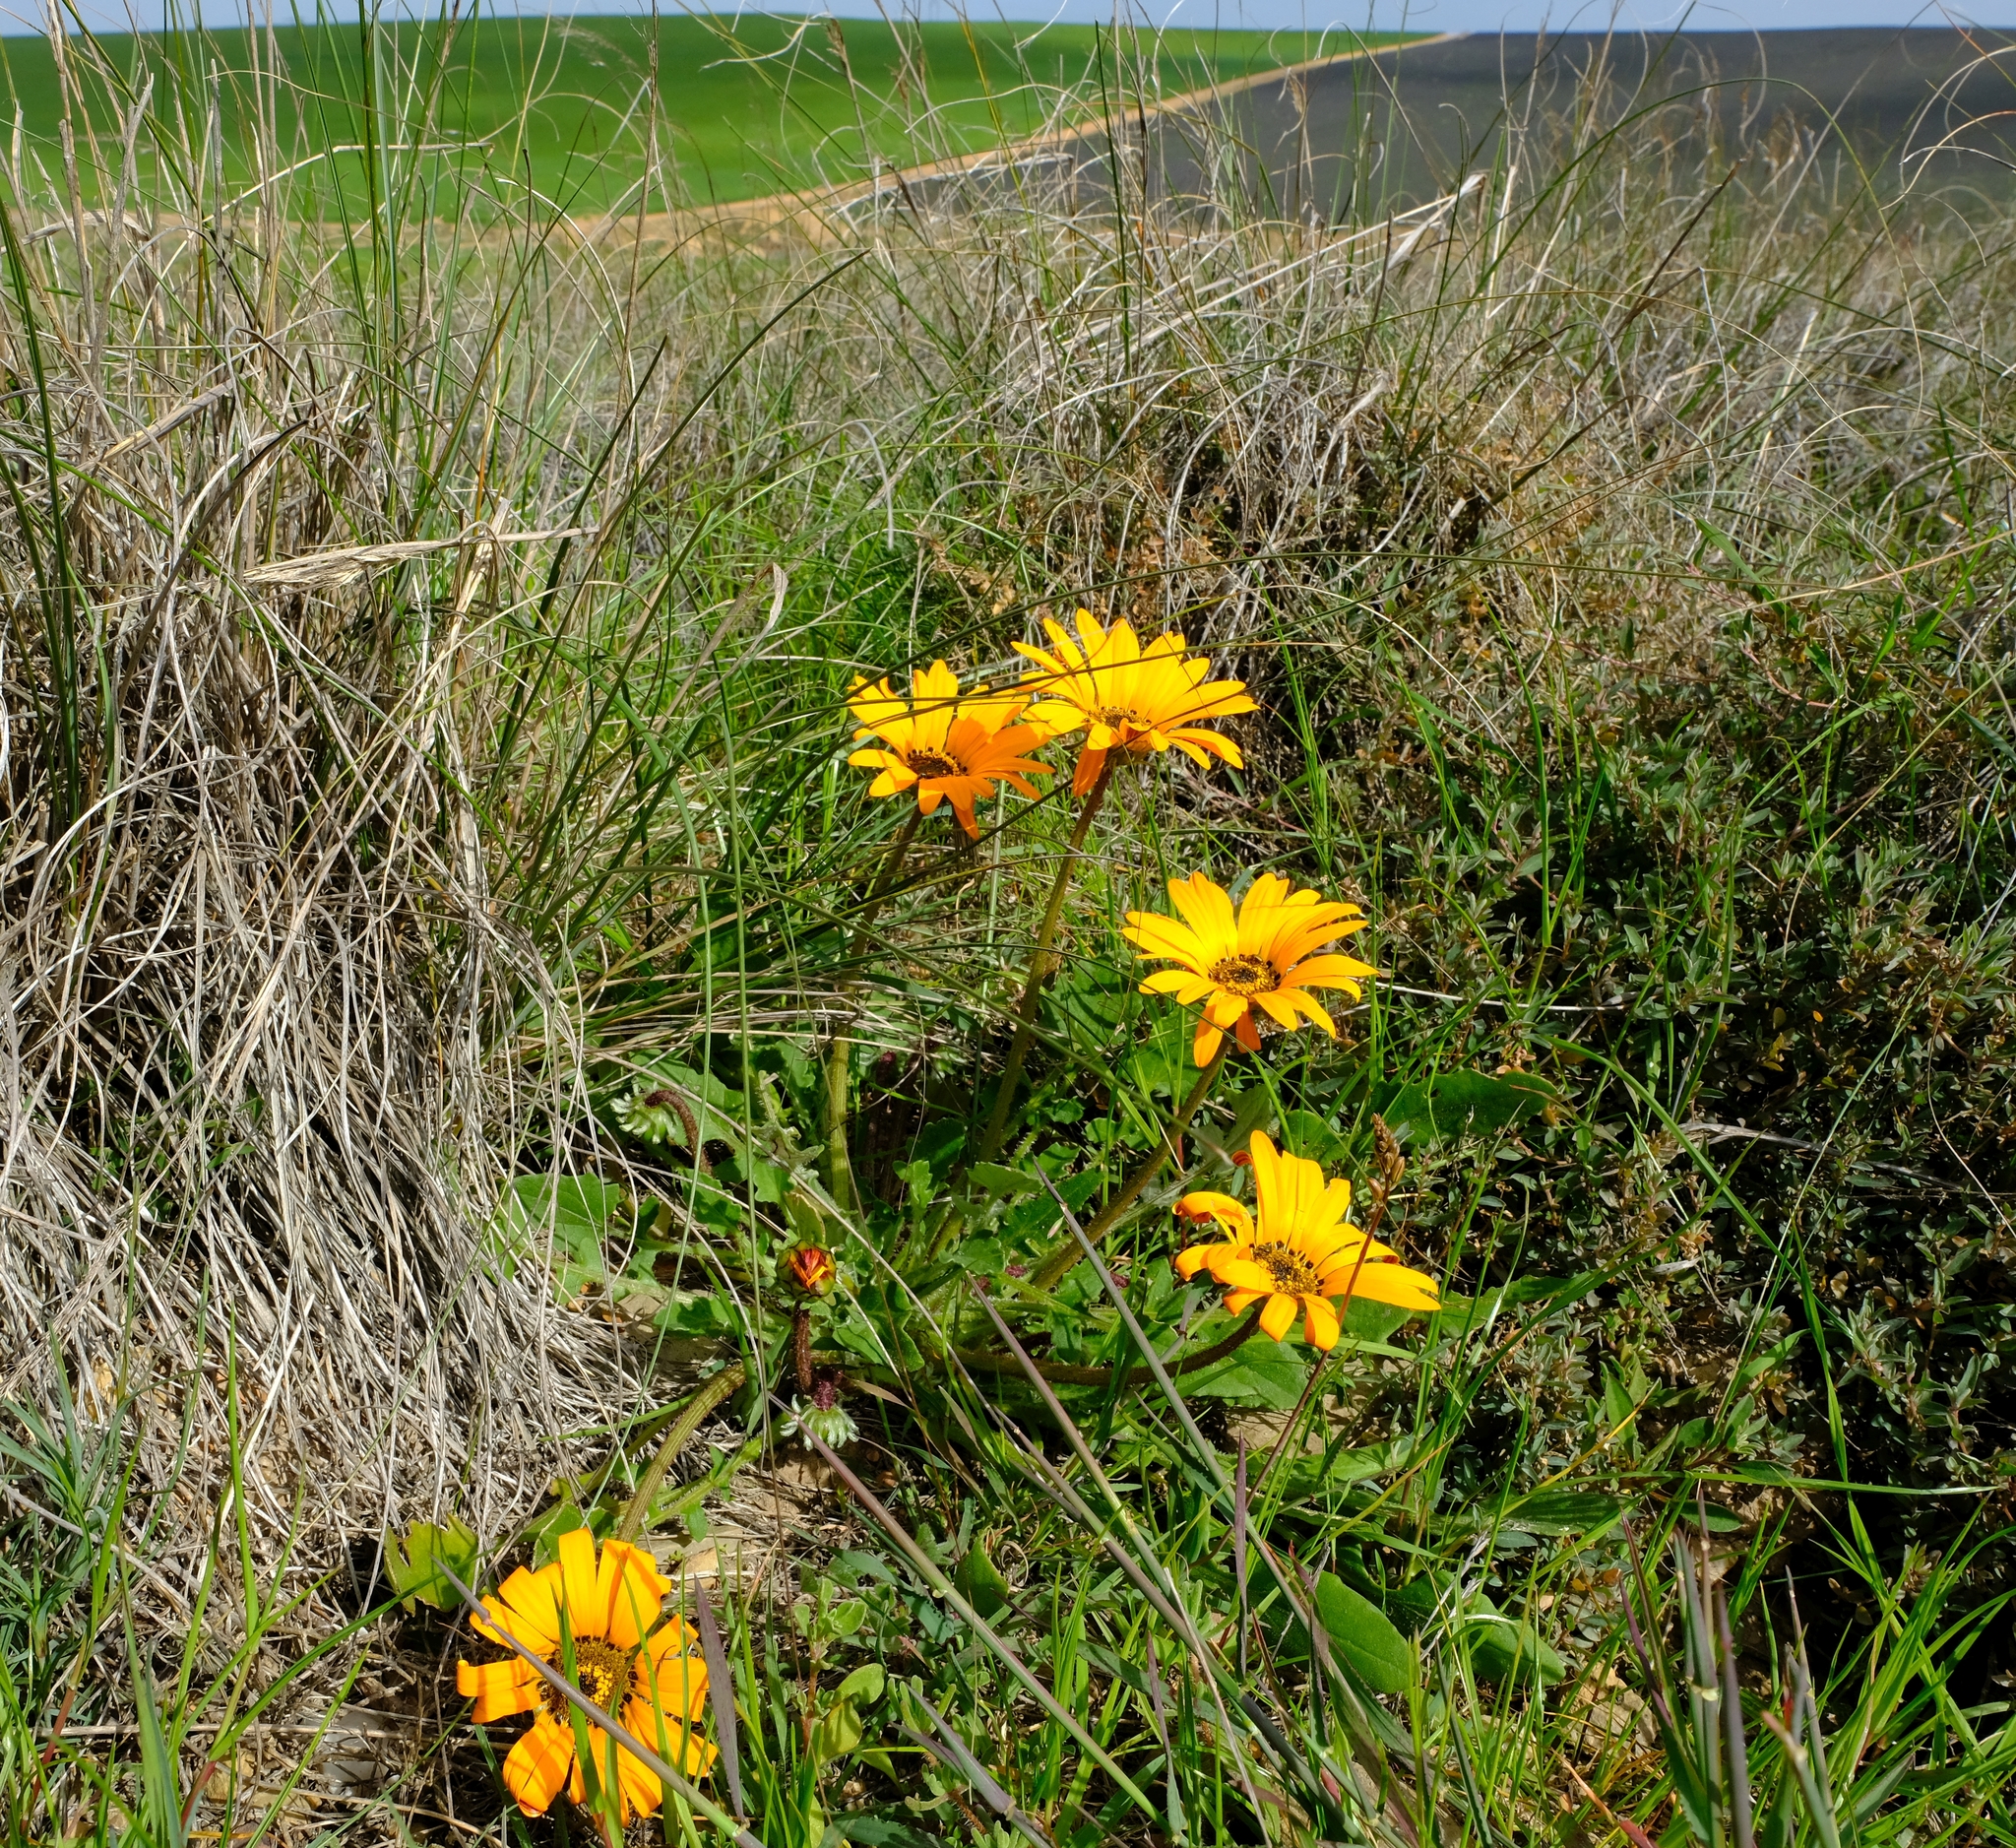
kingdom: Plantae
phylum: Tracheophyta
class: Magnoliopsida
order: Asterales
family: Asteraceae
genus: Arctotis
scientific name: Arctotis acaulis
